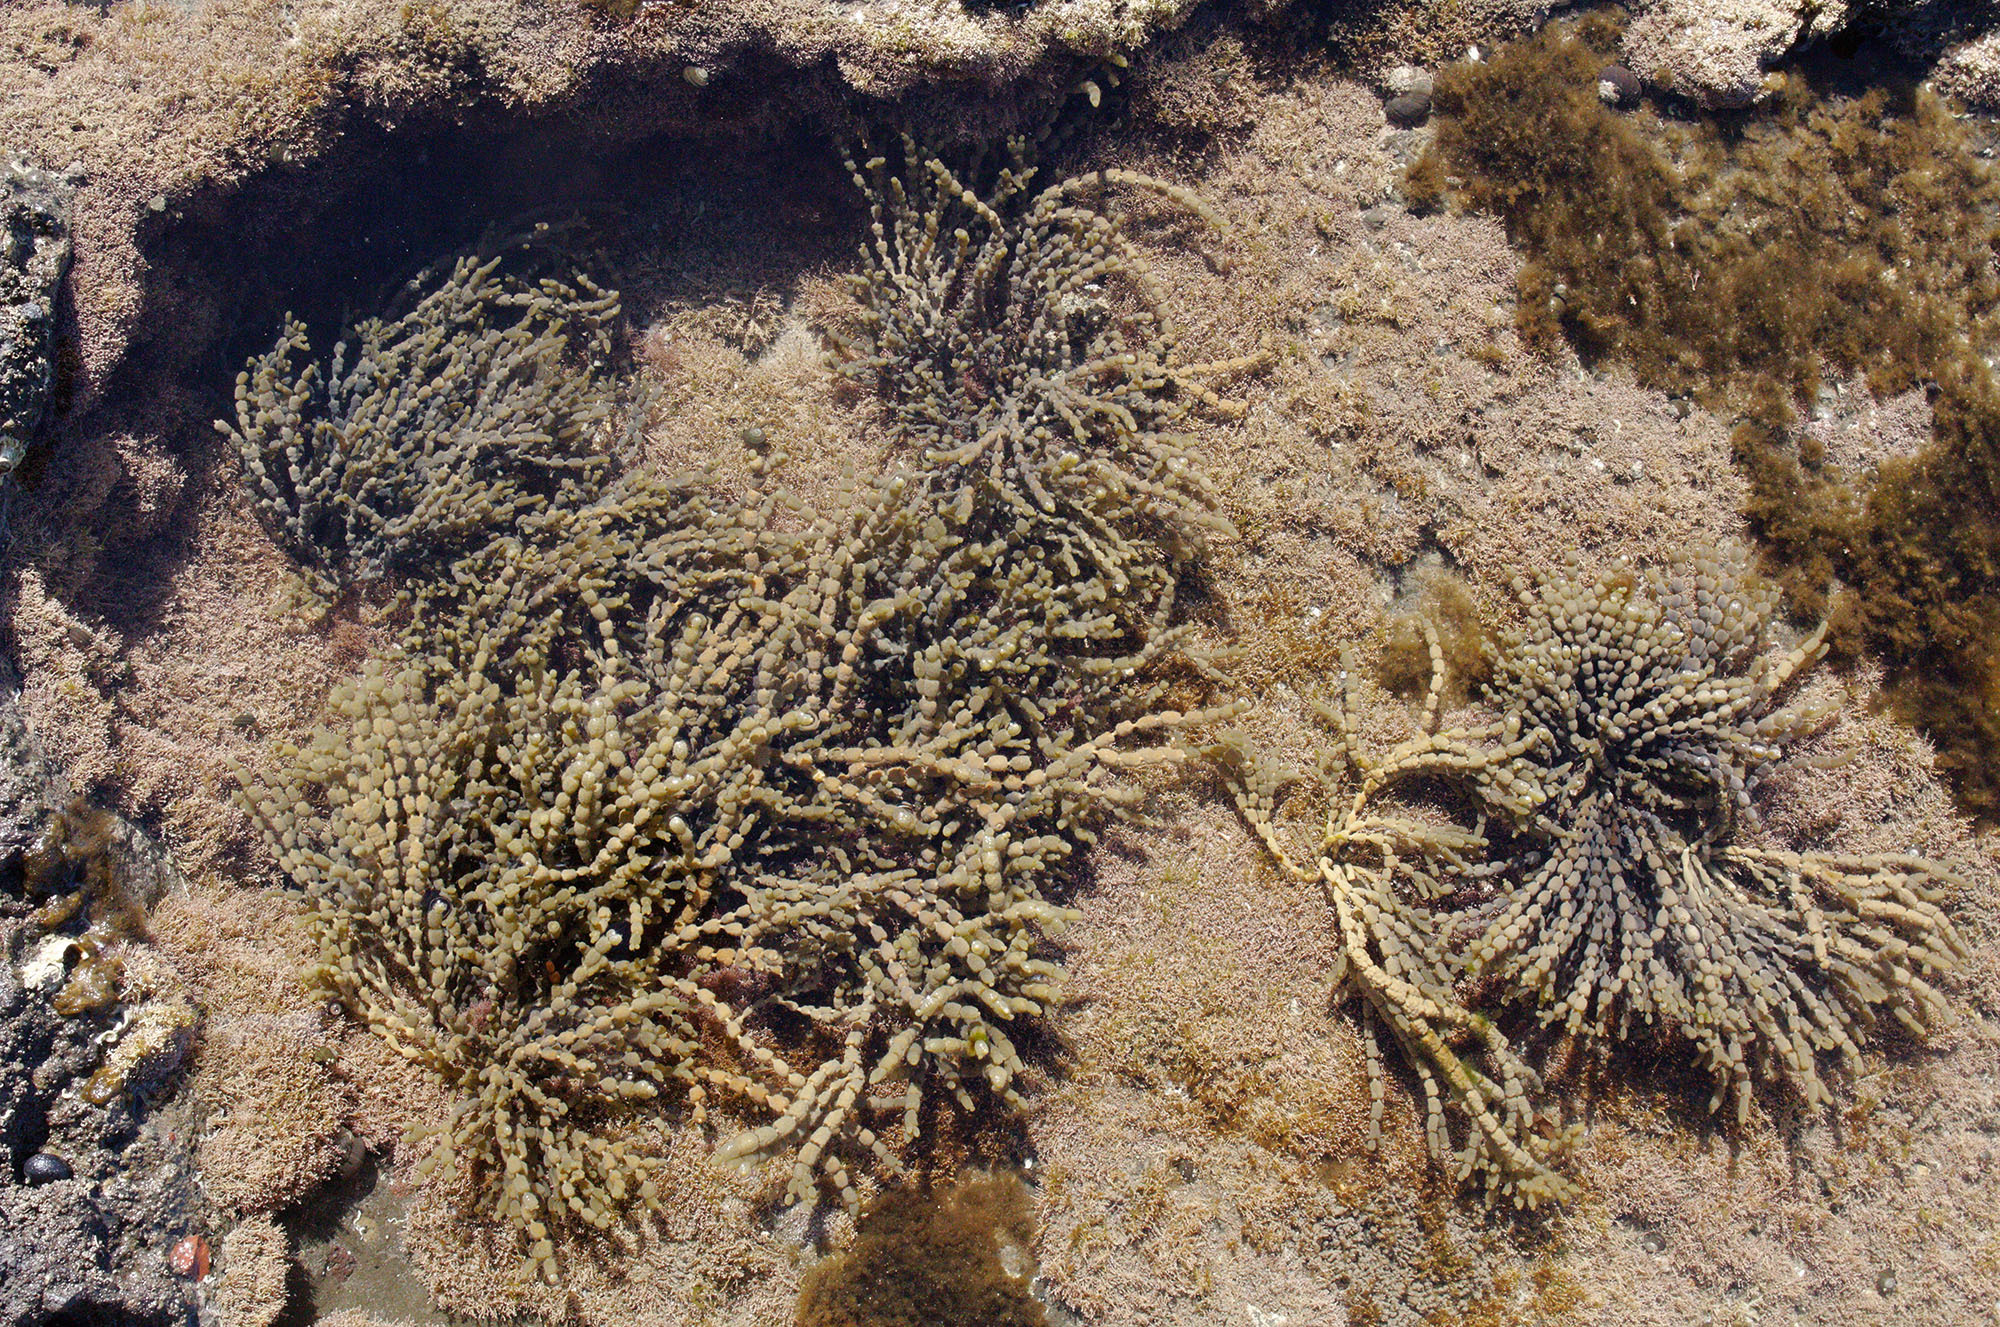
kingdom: Chromista
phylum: Ochrophyta
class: Phaeophyceae
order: Fucales
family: Hormosiraceae
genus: Hormosira
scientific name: Hormosira banksii
